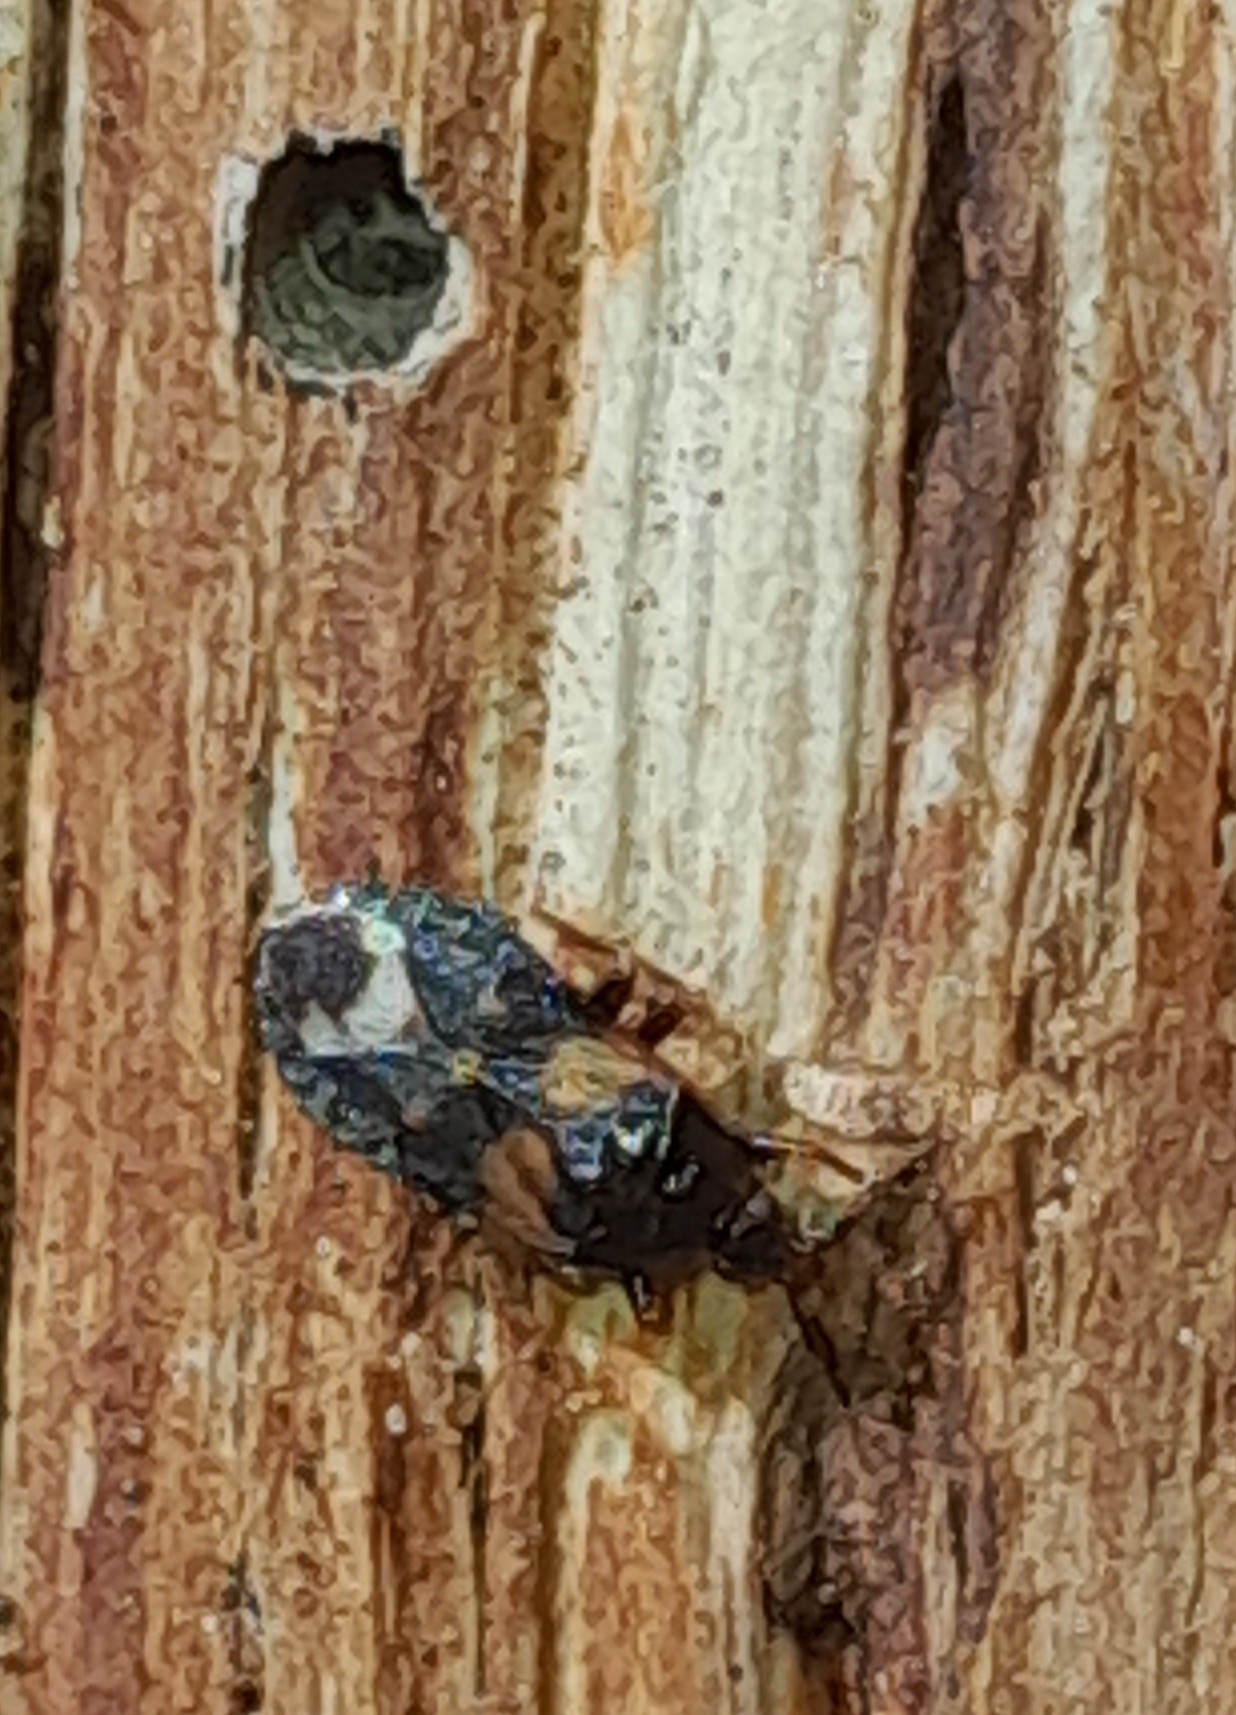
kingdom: Animalia
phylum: Arthropoda
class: Insecta
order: Hemiptera
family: Anthocoridae
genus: Lyctocoris
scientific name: Lyctocoris dimidiatus
